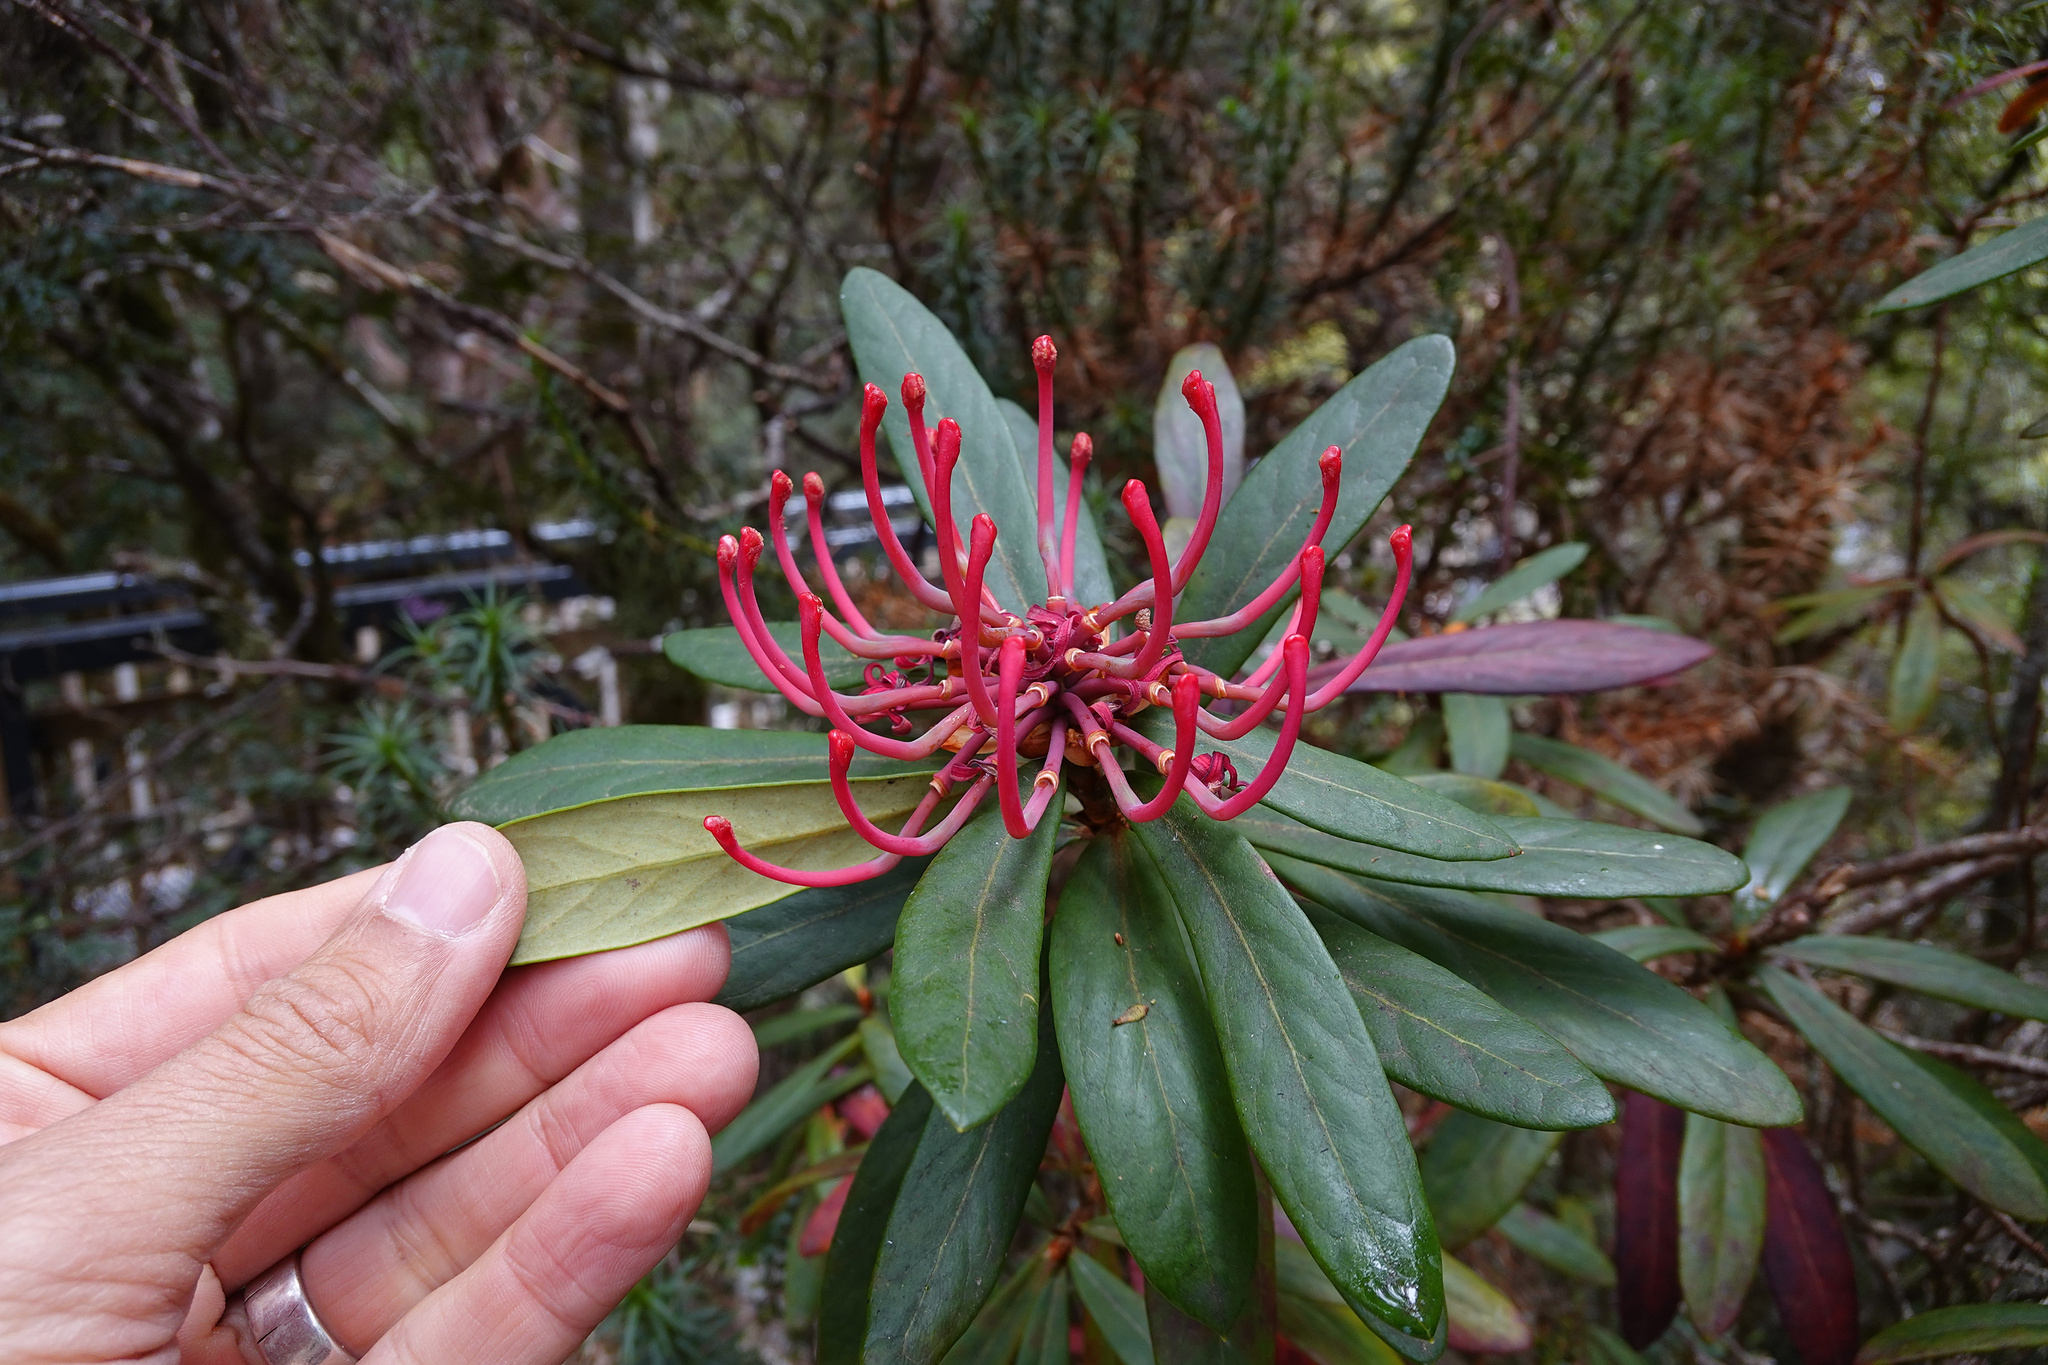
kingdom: Plantae
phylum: Tracheophyta
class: Magnoliopsida
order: Proteales
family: Proteaceae
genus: Telopea
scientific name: Telopea truncata
